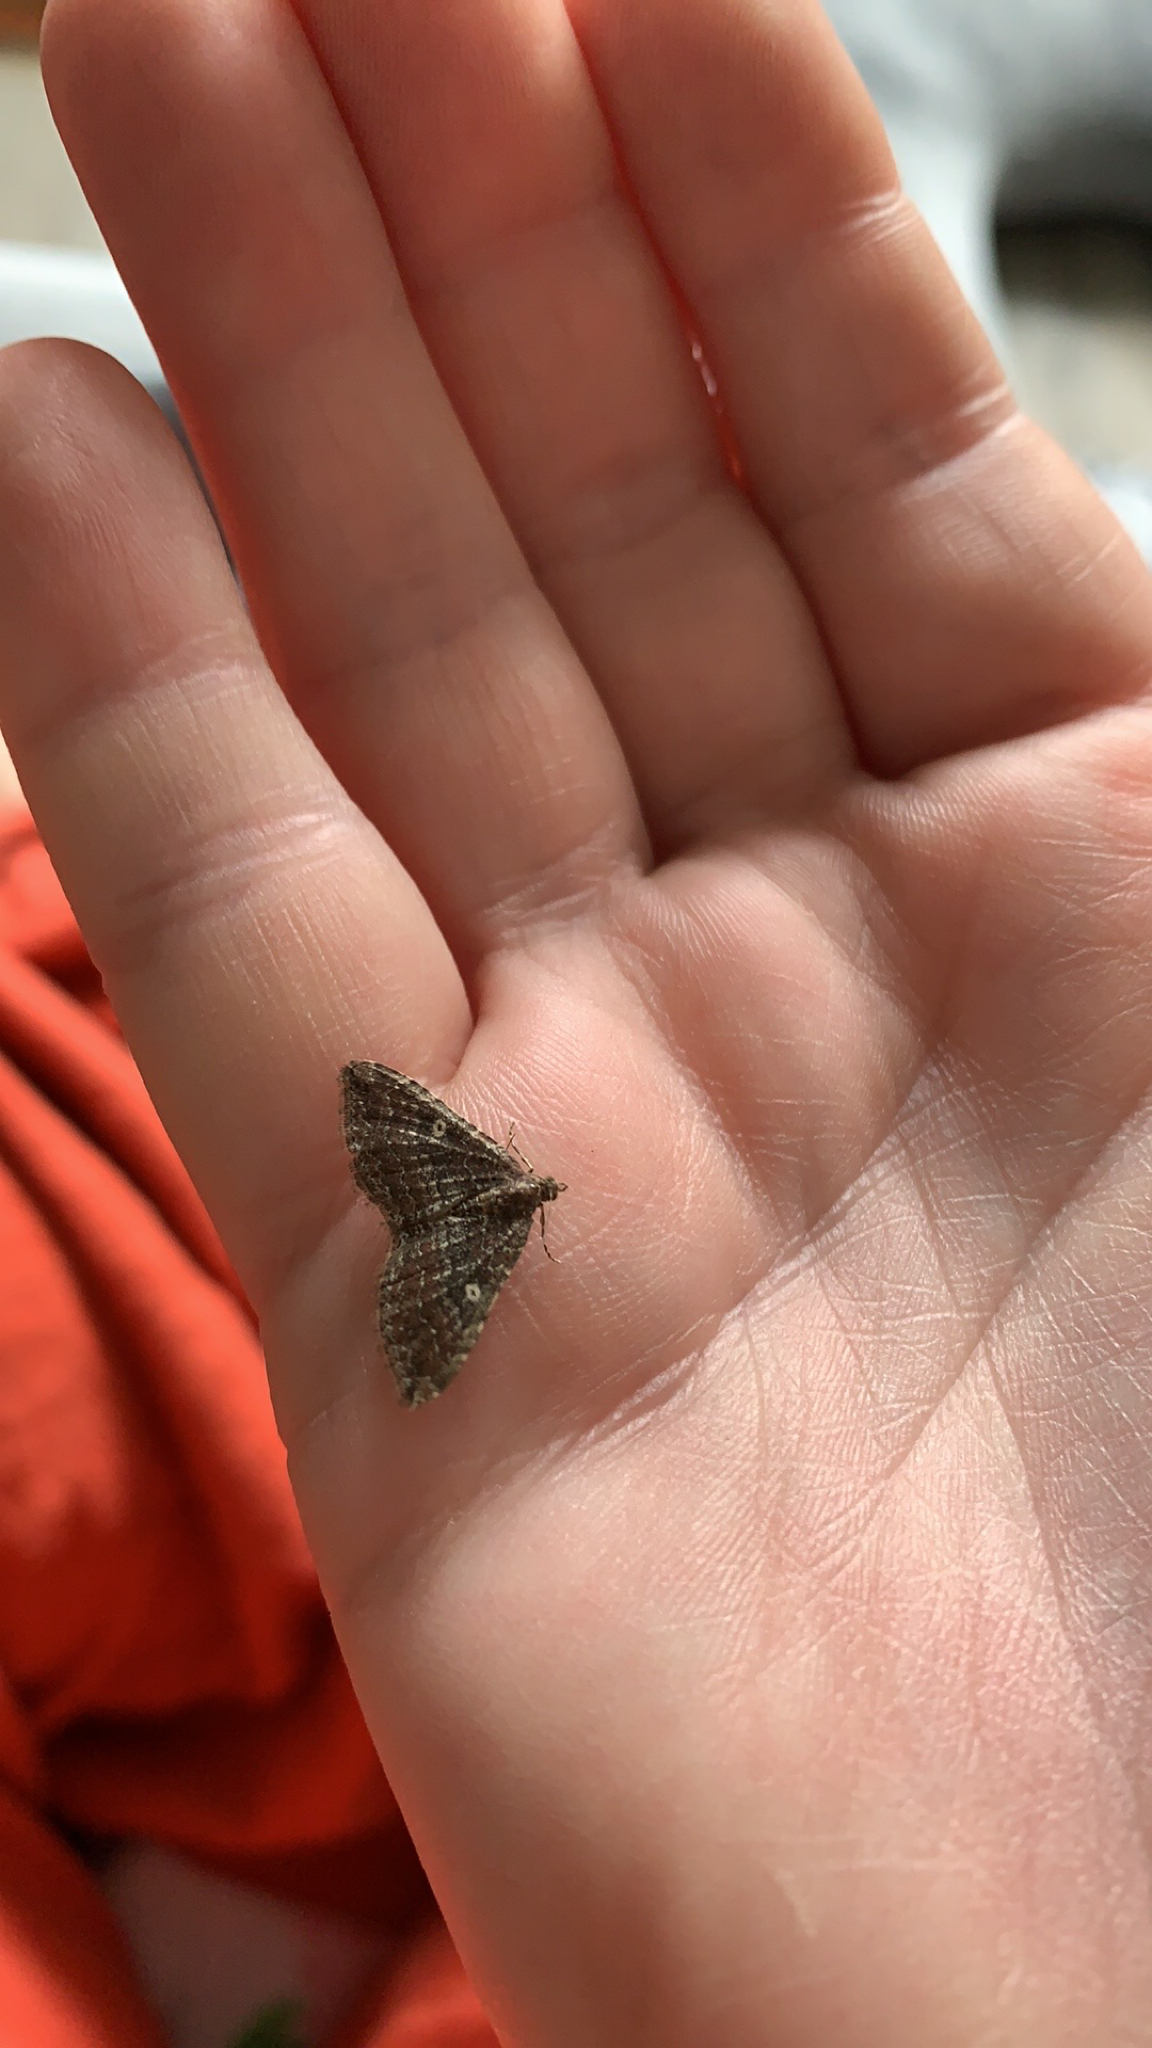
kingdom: Animalia
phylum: Arthropoda
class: Insecta
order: Lepidoptera
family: Geometridae
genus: Orthonama
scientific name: Orthonama obstipata
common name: The gem
